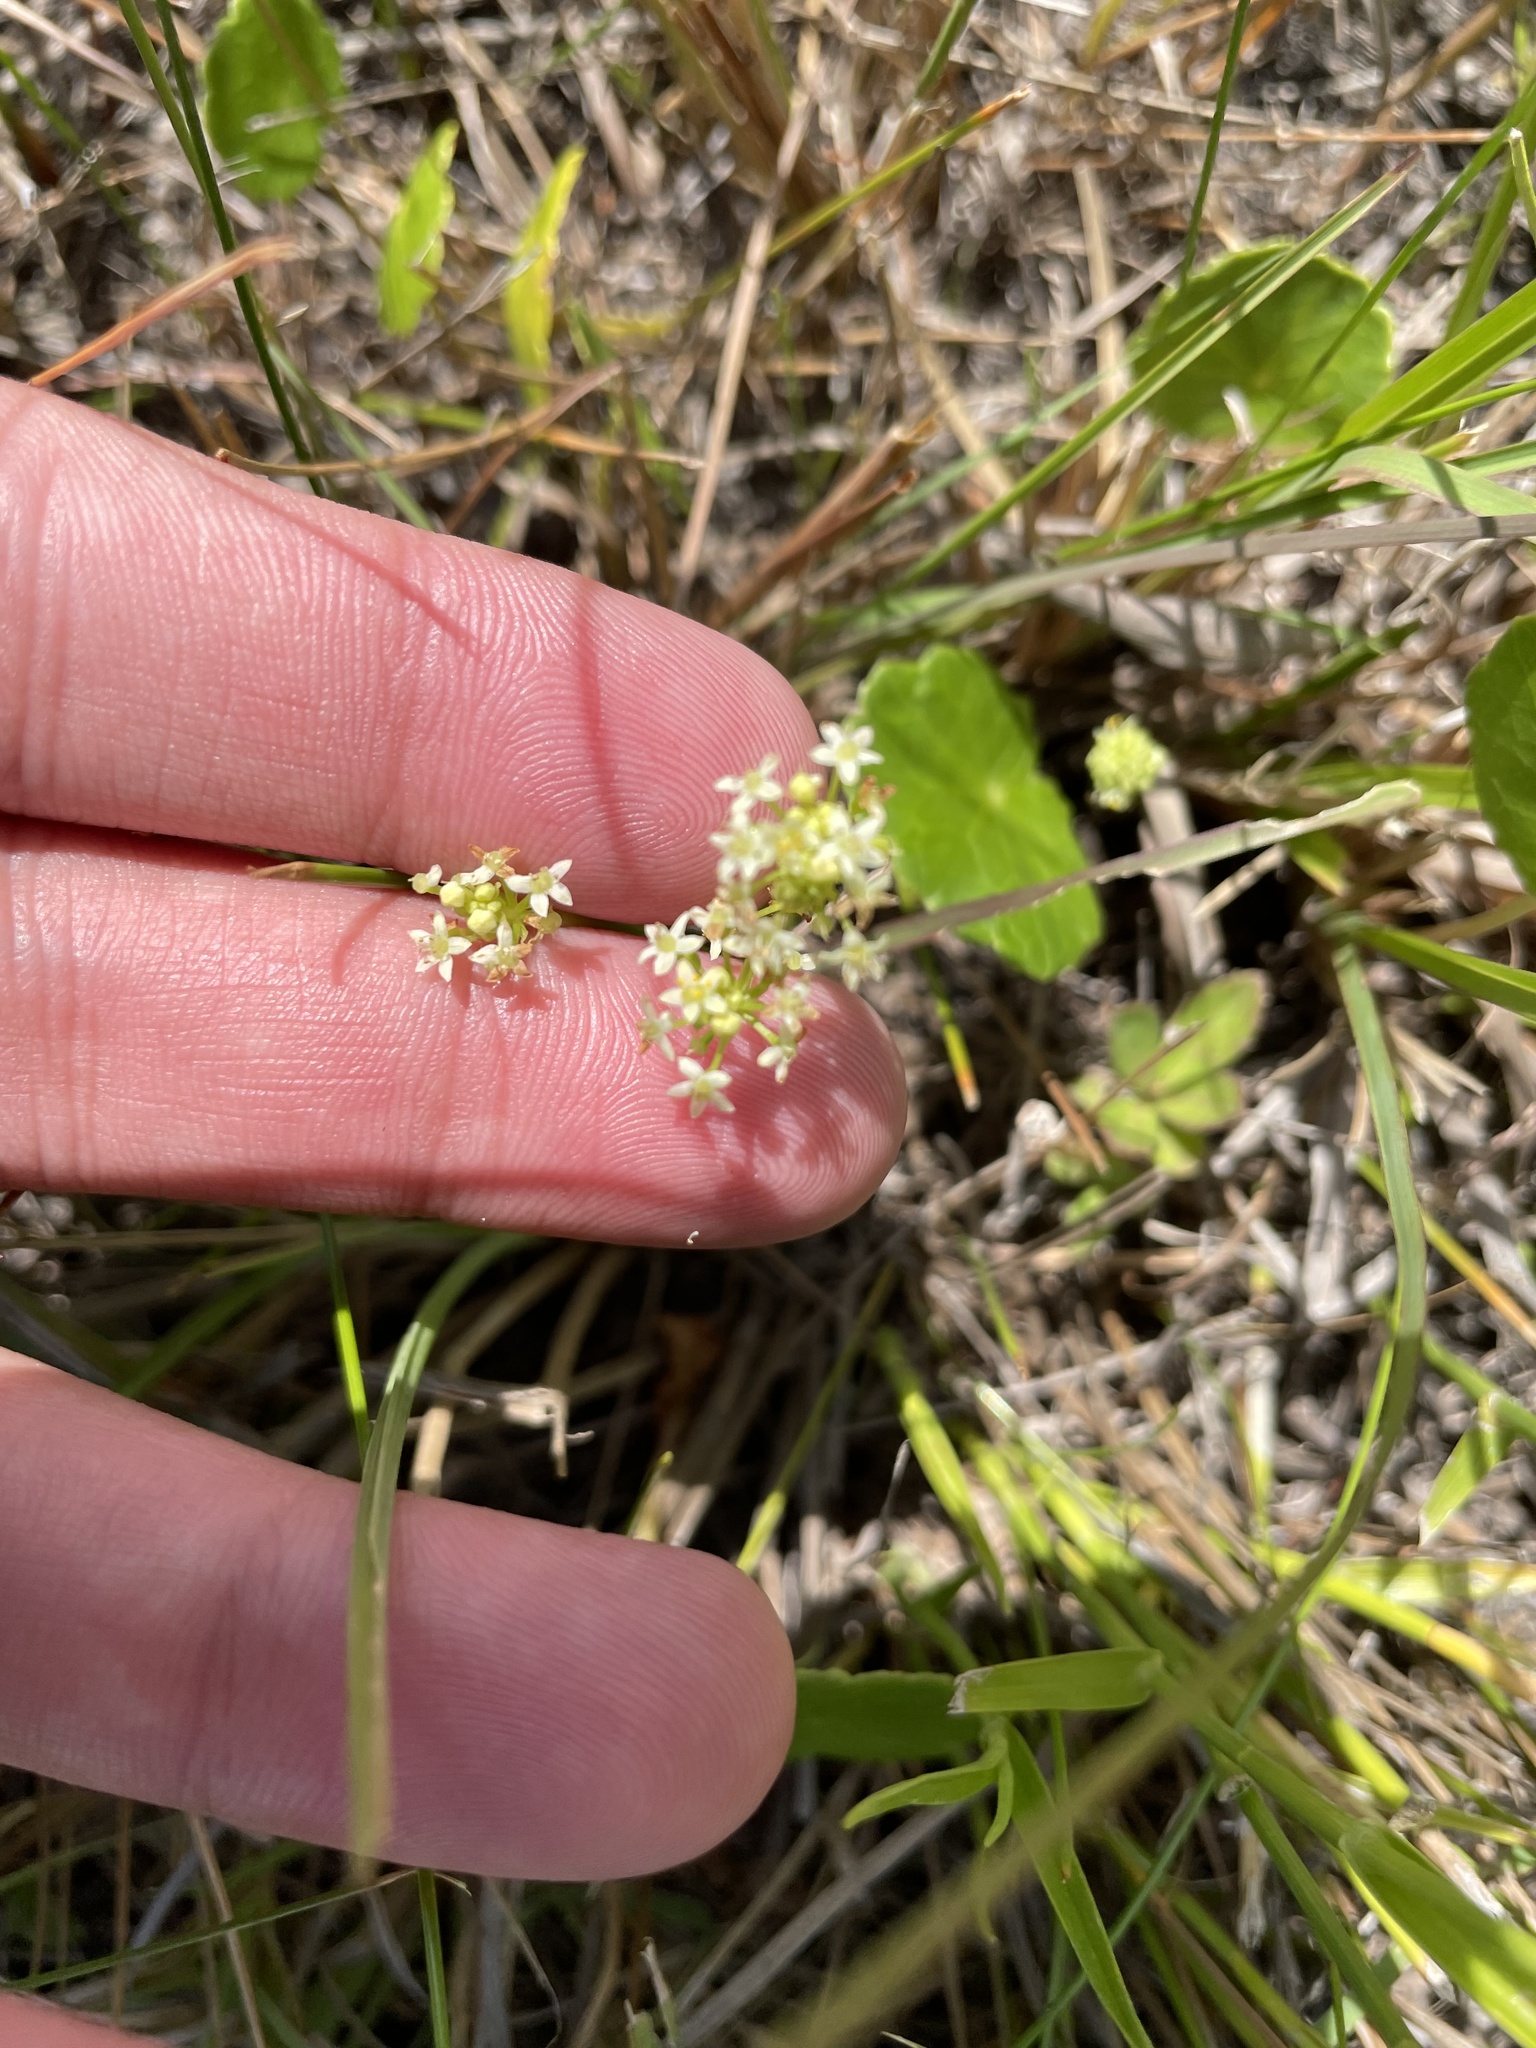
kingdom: Plantae
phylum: Tracheophyta
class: Magnoliopsida
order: Apiales
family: Araliaceae
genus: Hydrocotyle
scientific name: Hydrocotyle umbellata
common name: Water pennywort
